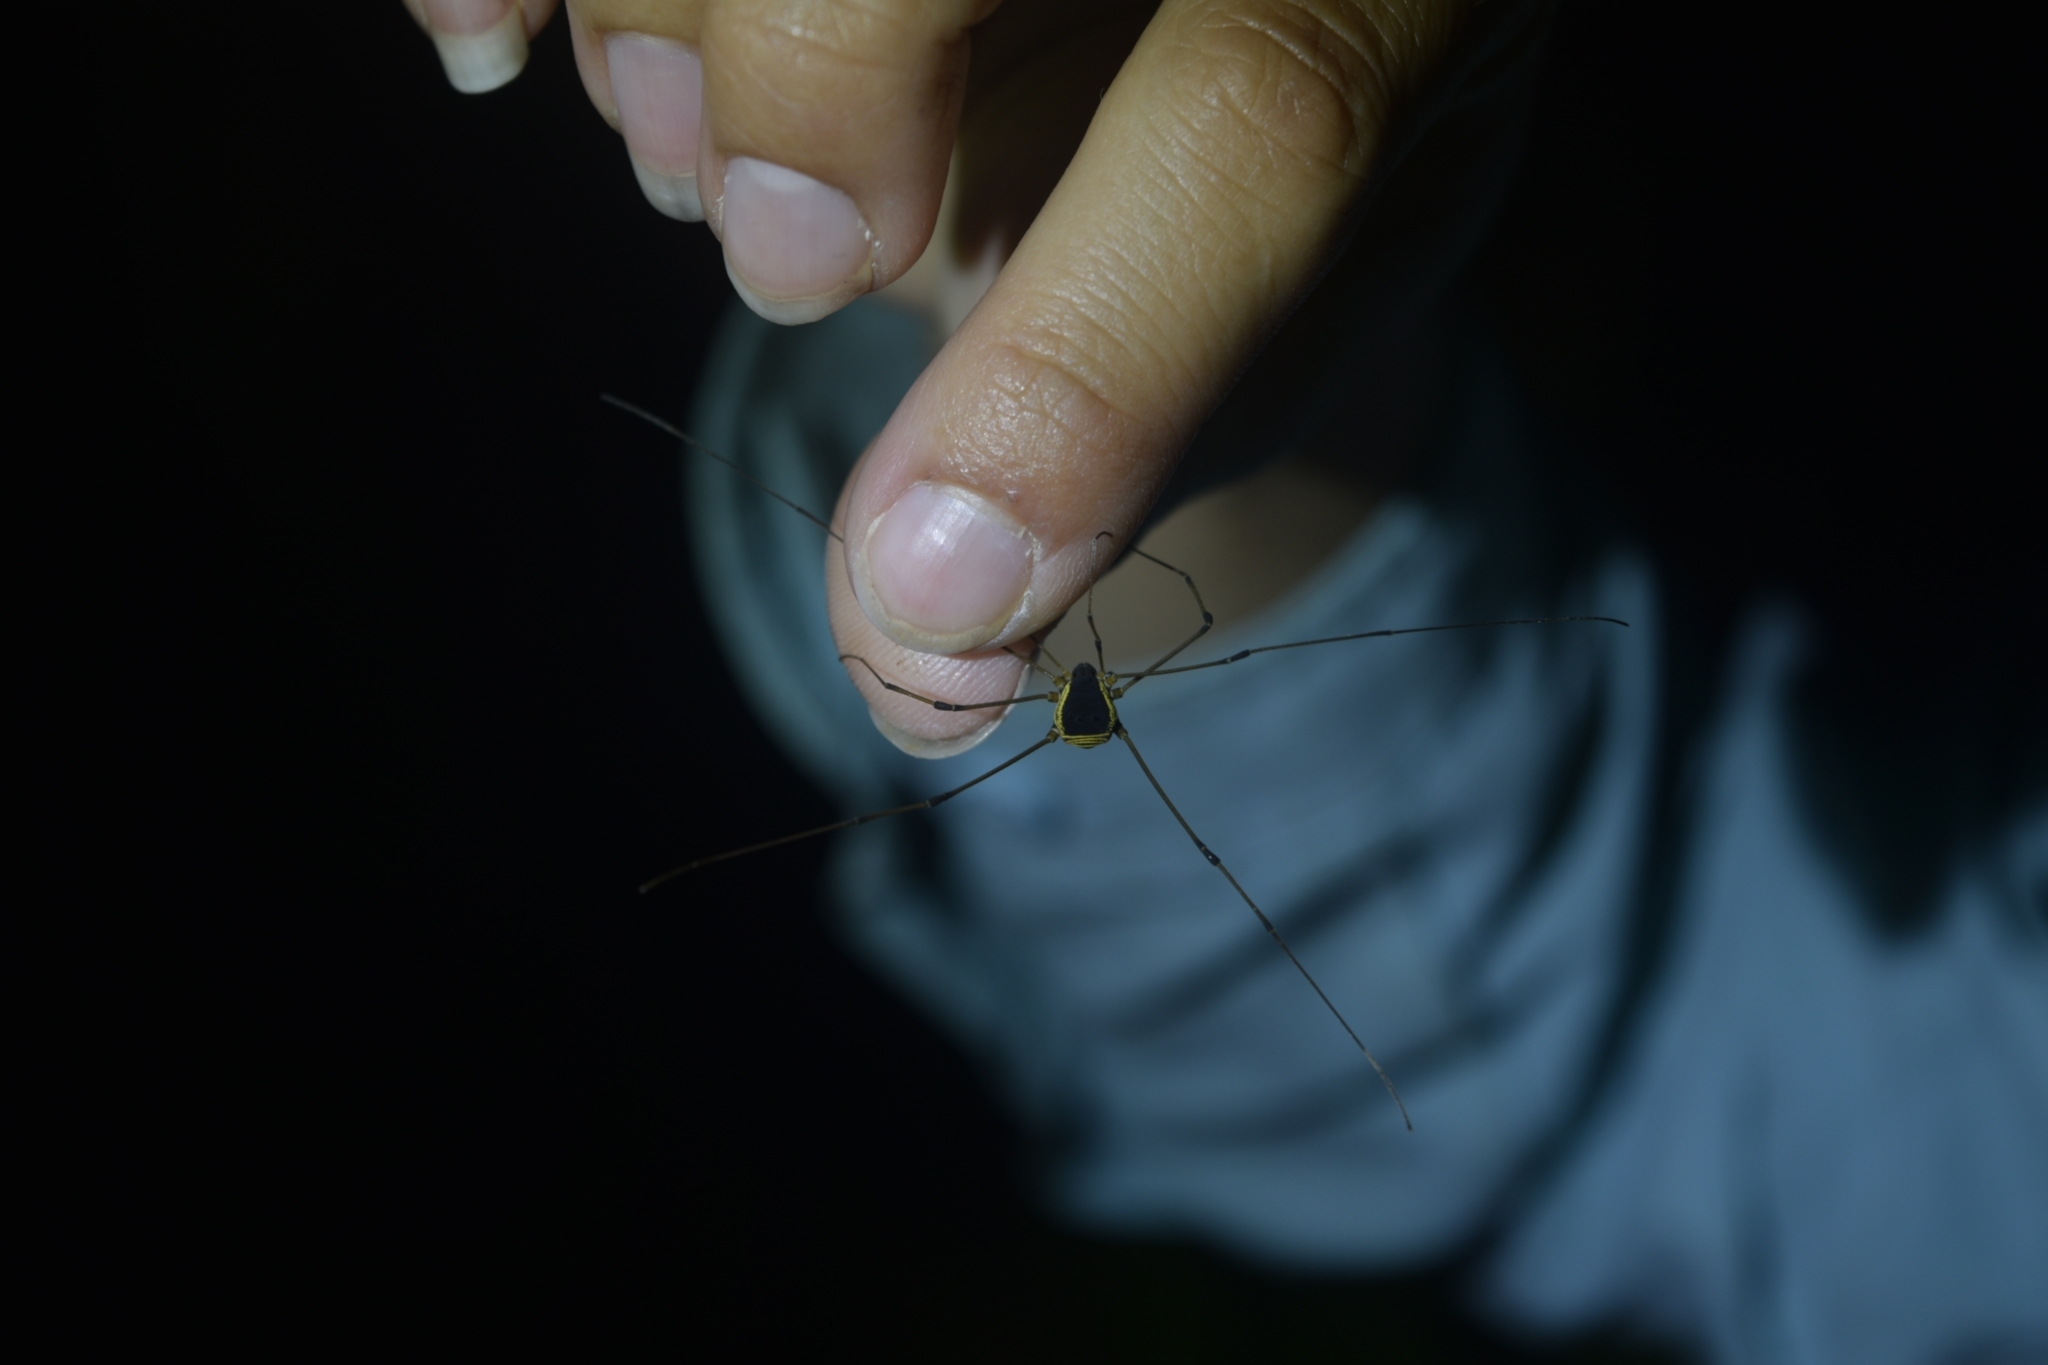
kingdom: Animalia
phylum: Arthropoda
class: Arachnida
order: Opiliones
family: Cosmetidae
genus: Cynorta
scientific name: Cynorta marginalis
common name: Harvestmen
